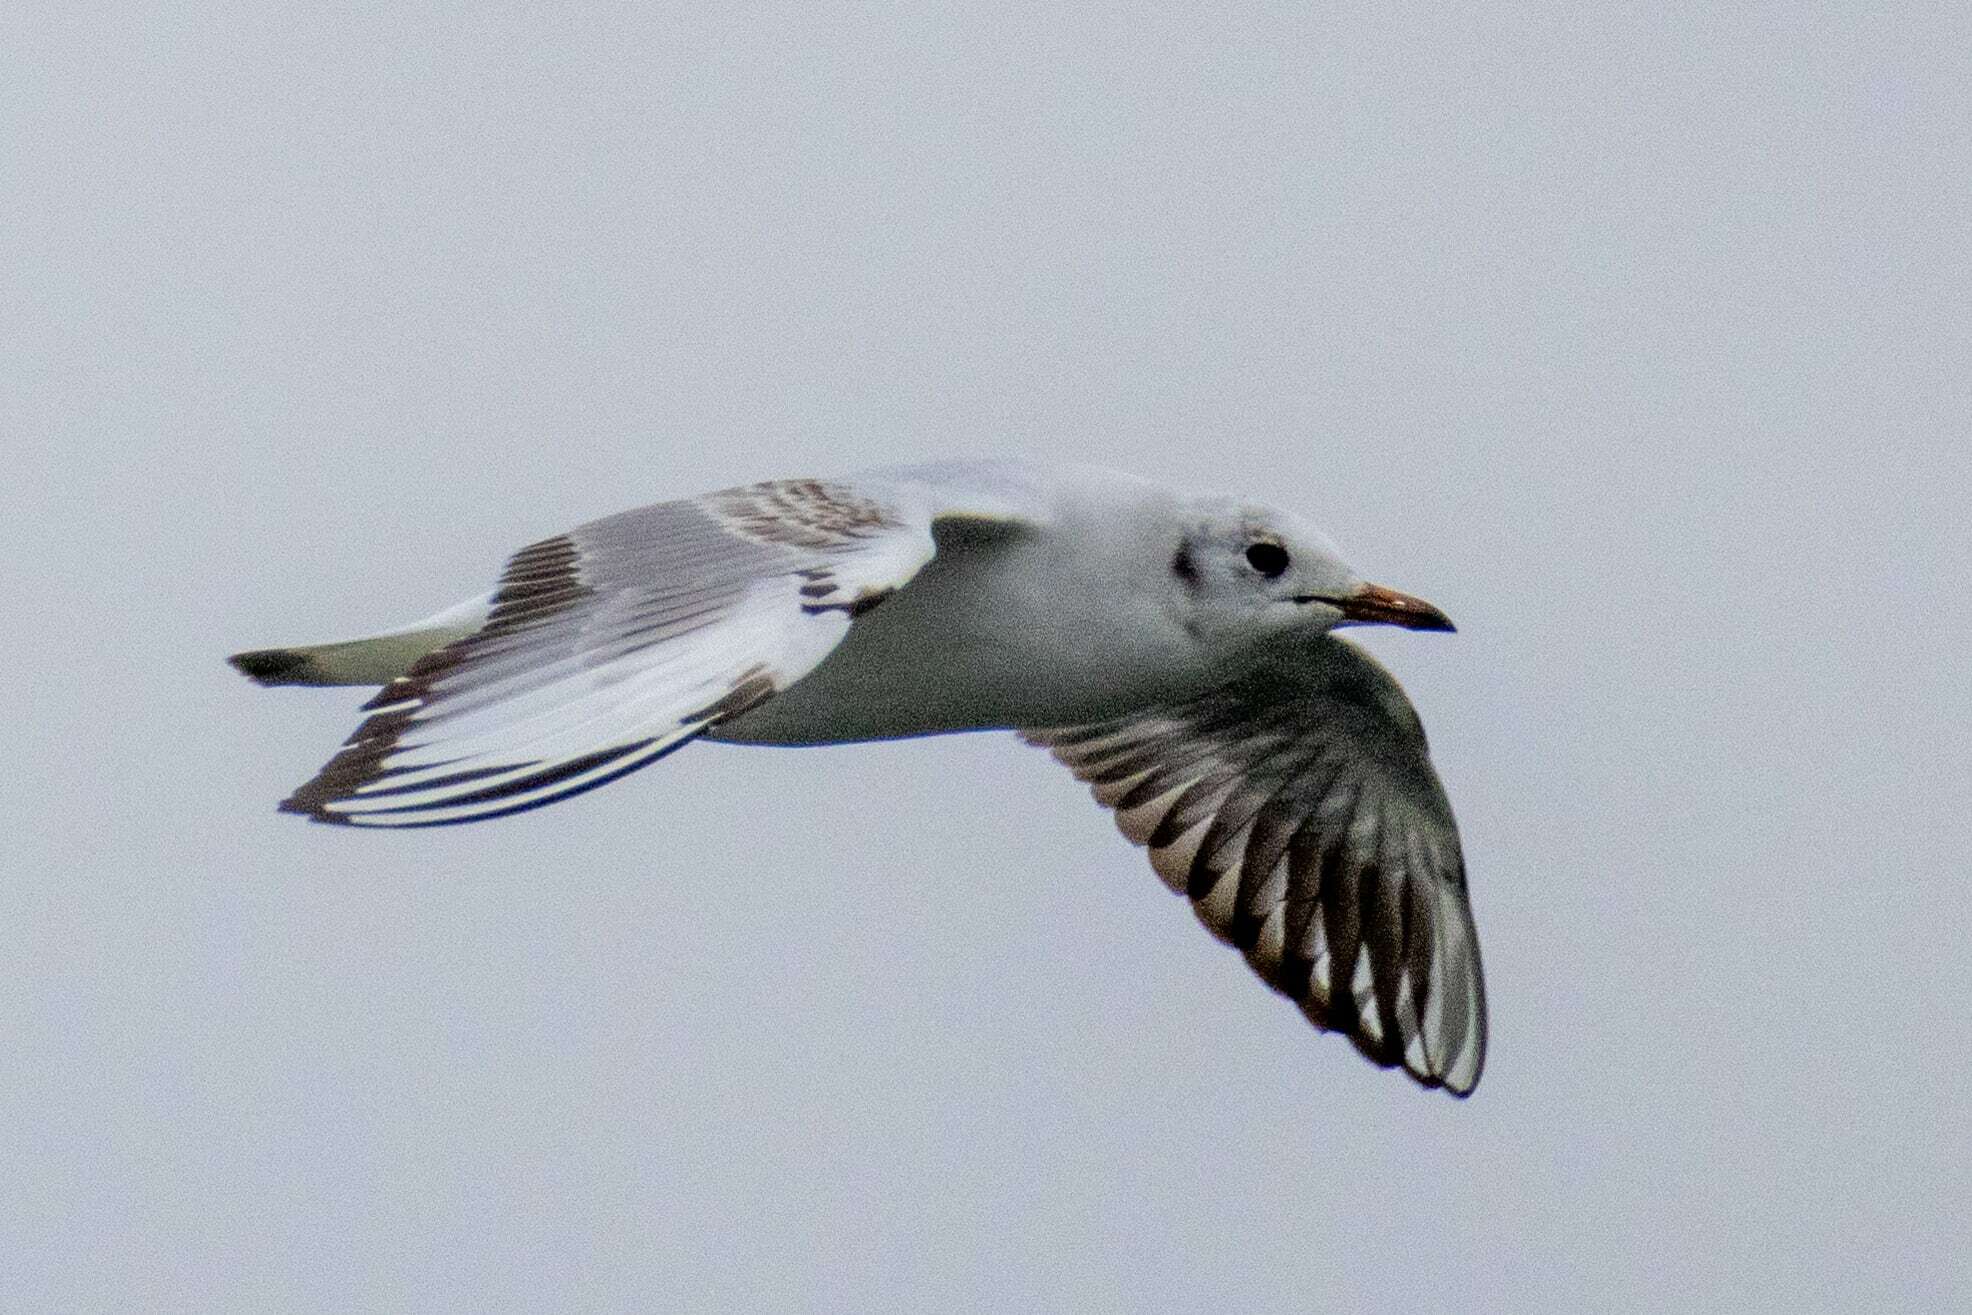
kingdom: Animalia
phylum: Chordata
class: Aves
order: Charadriiformes
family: Laridae
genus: Chroicocephalus
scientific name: Chroicocephalus ridibundus
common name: Black-headed gull
